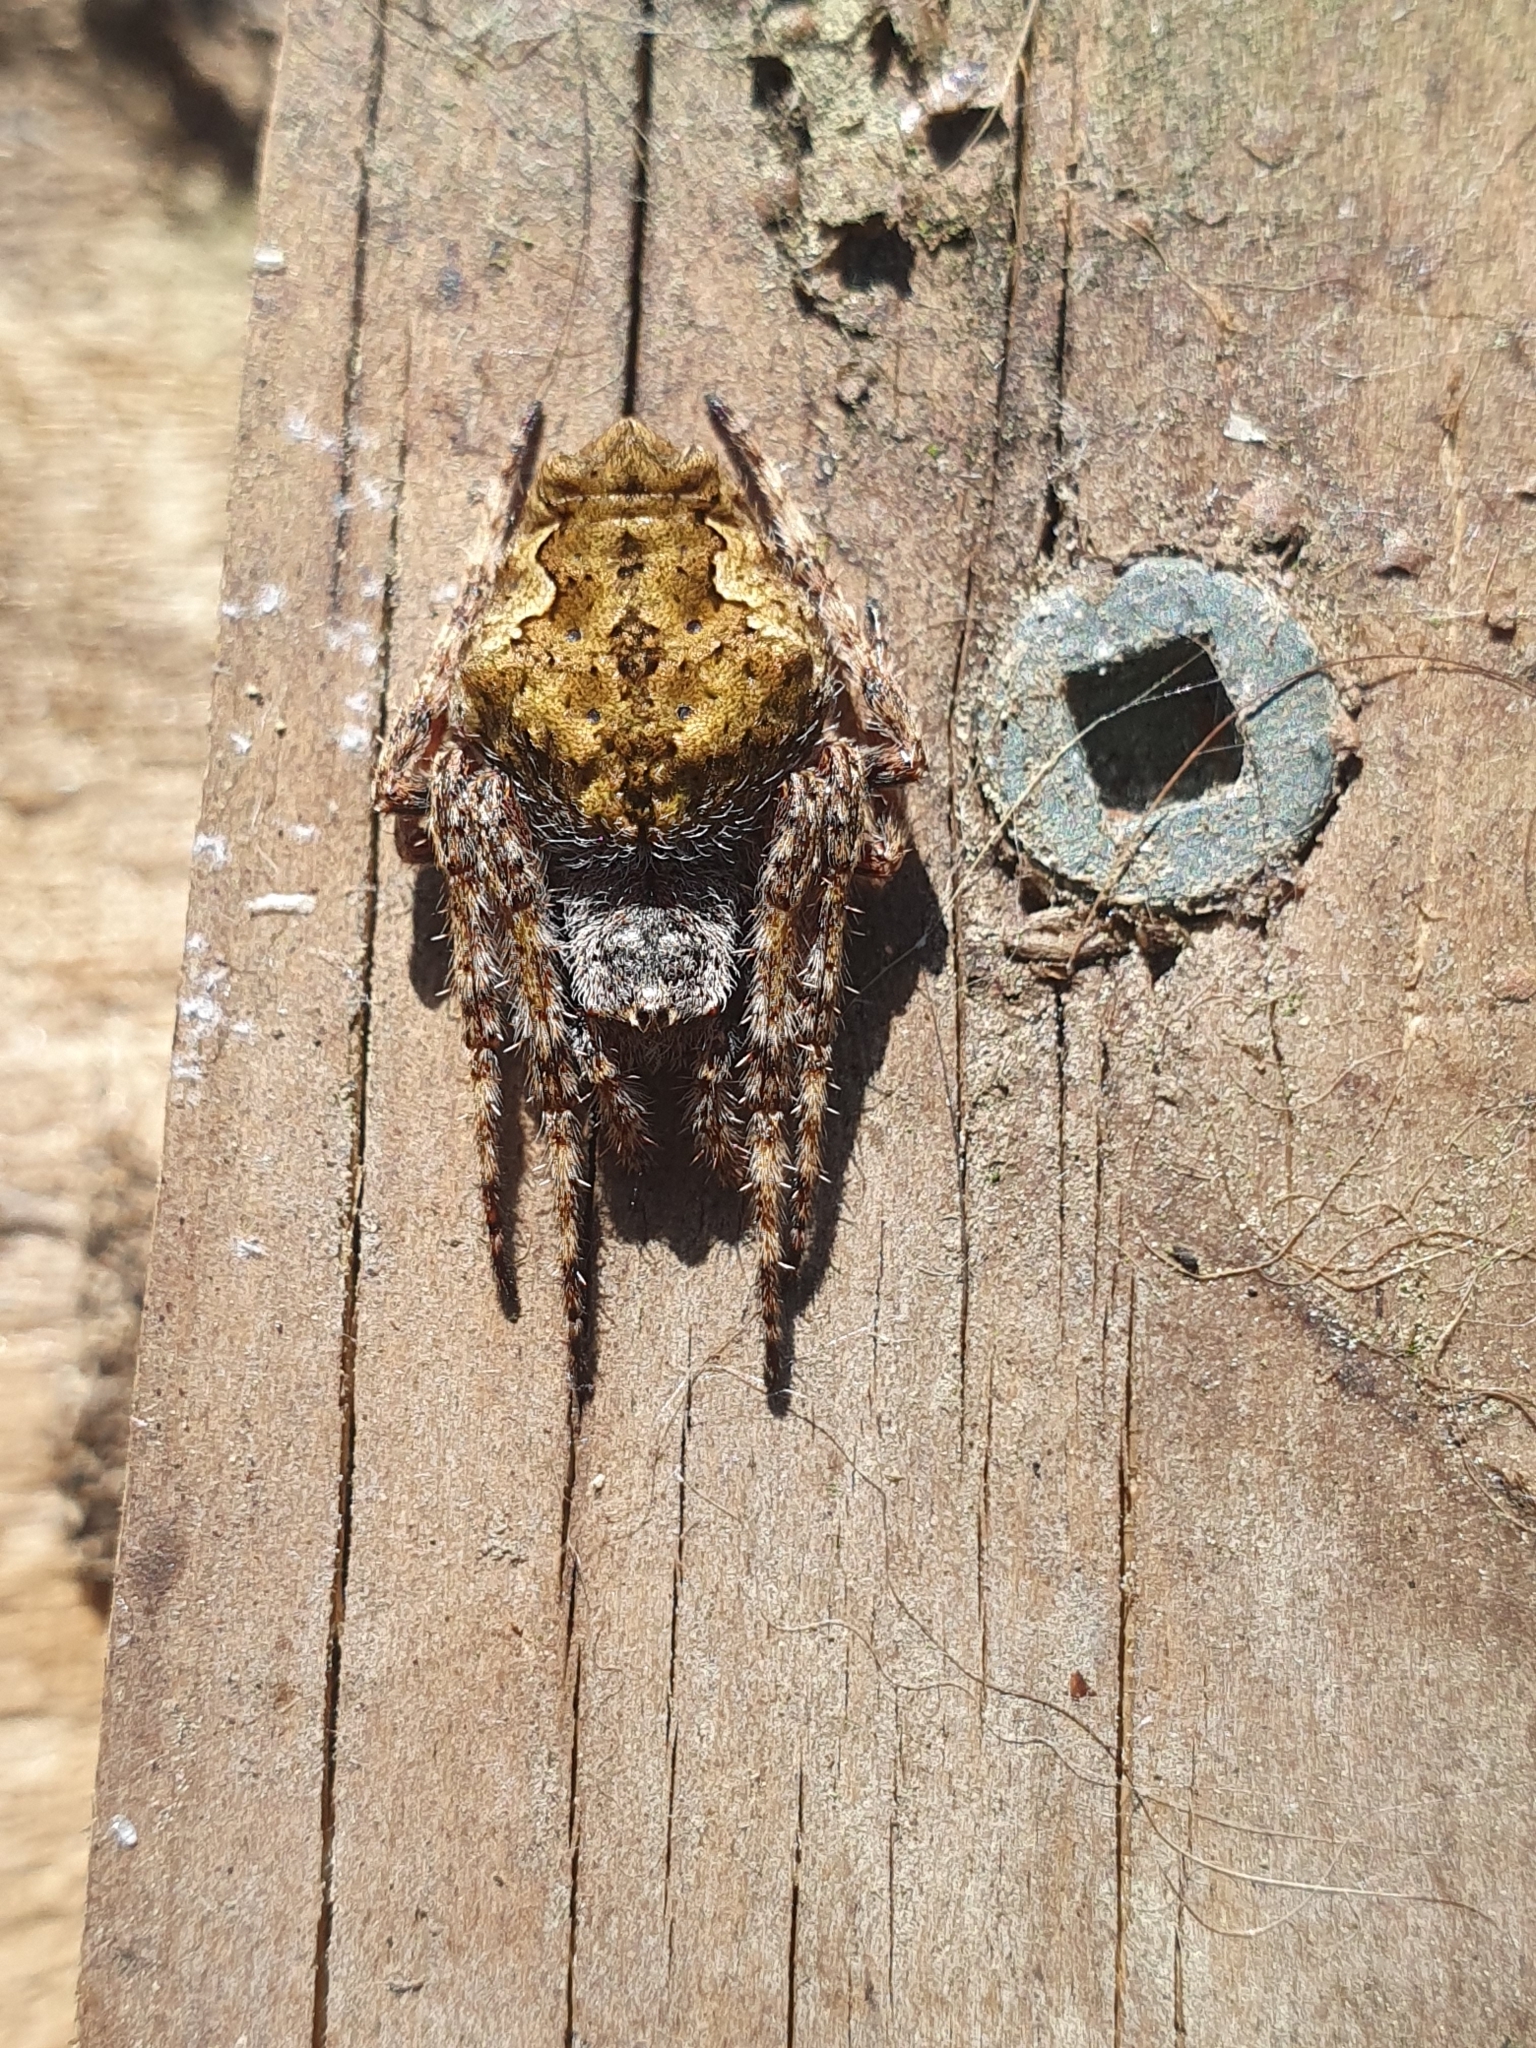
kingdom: Animalia
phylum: Arthropoda
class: Arachnida
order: Araneae
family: Araneidae
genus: Eriophora
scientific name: Eriophora pustulosa
